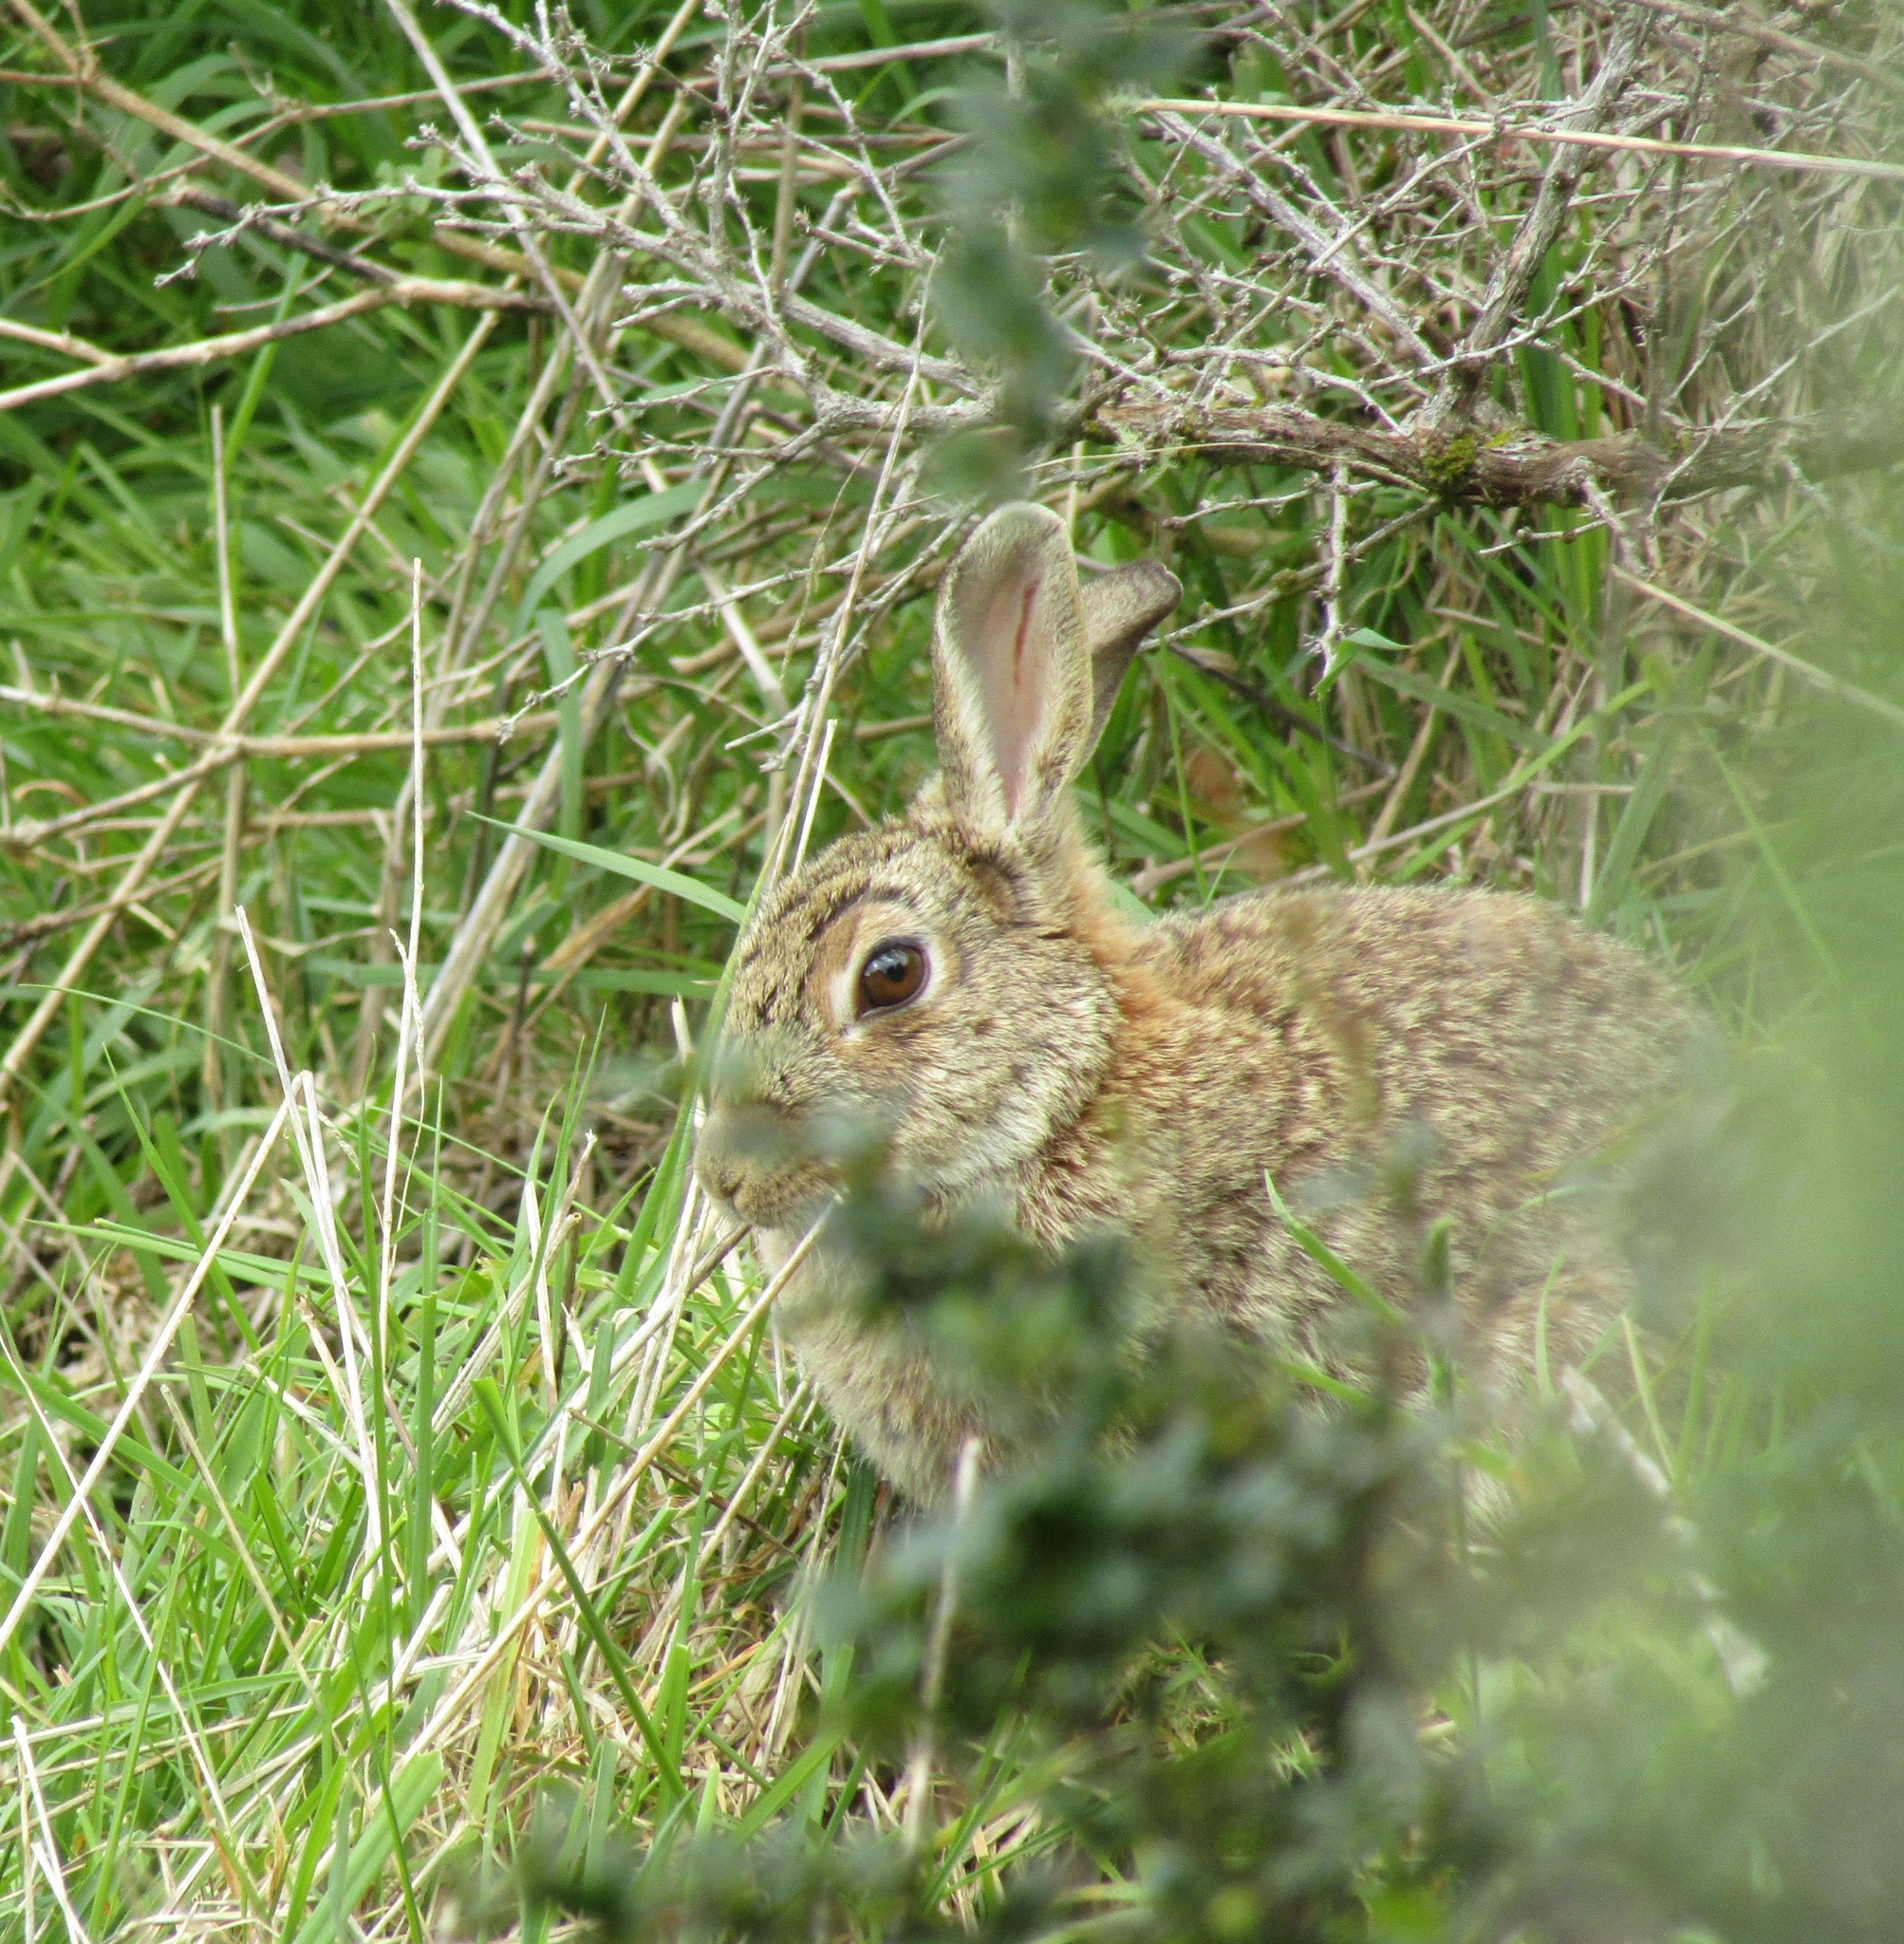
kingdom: Animalia
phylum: Chordata
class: Mammalia
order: Lagomorpha
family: Leporidae
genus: Oryctolagus
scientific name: Oryctolagus cuniculus
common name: European rabbit
